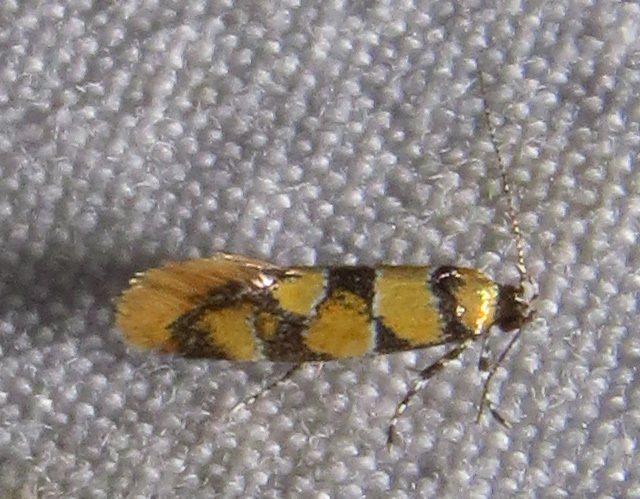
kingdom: Animalia
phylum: Arthropoda
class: Insecta
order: Lepidoptera
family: Oecophoridae
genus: Decantha
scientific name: Decantha borkhausenii
